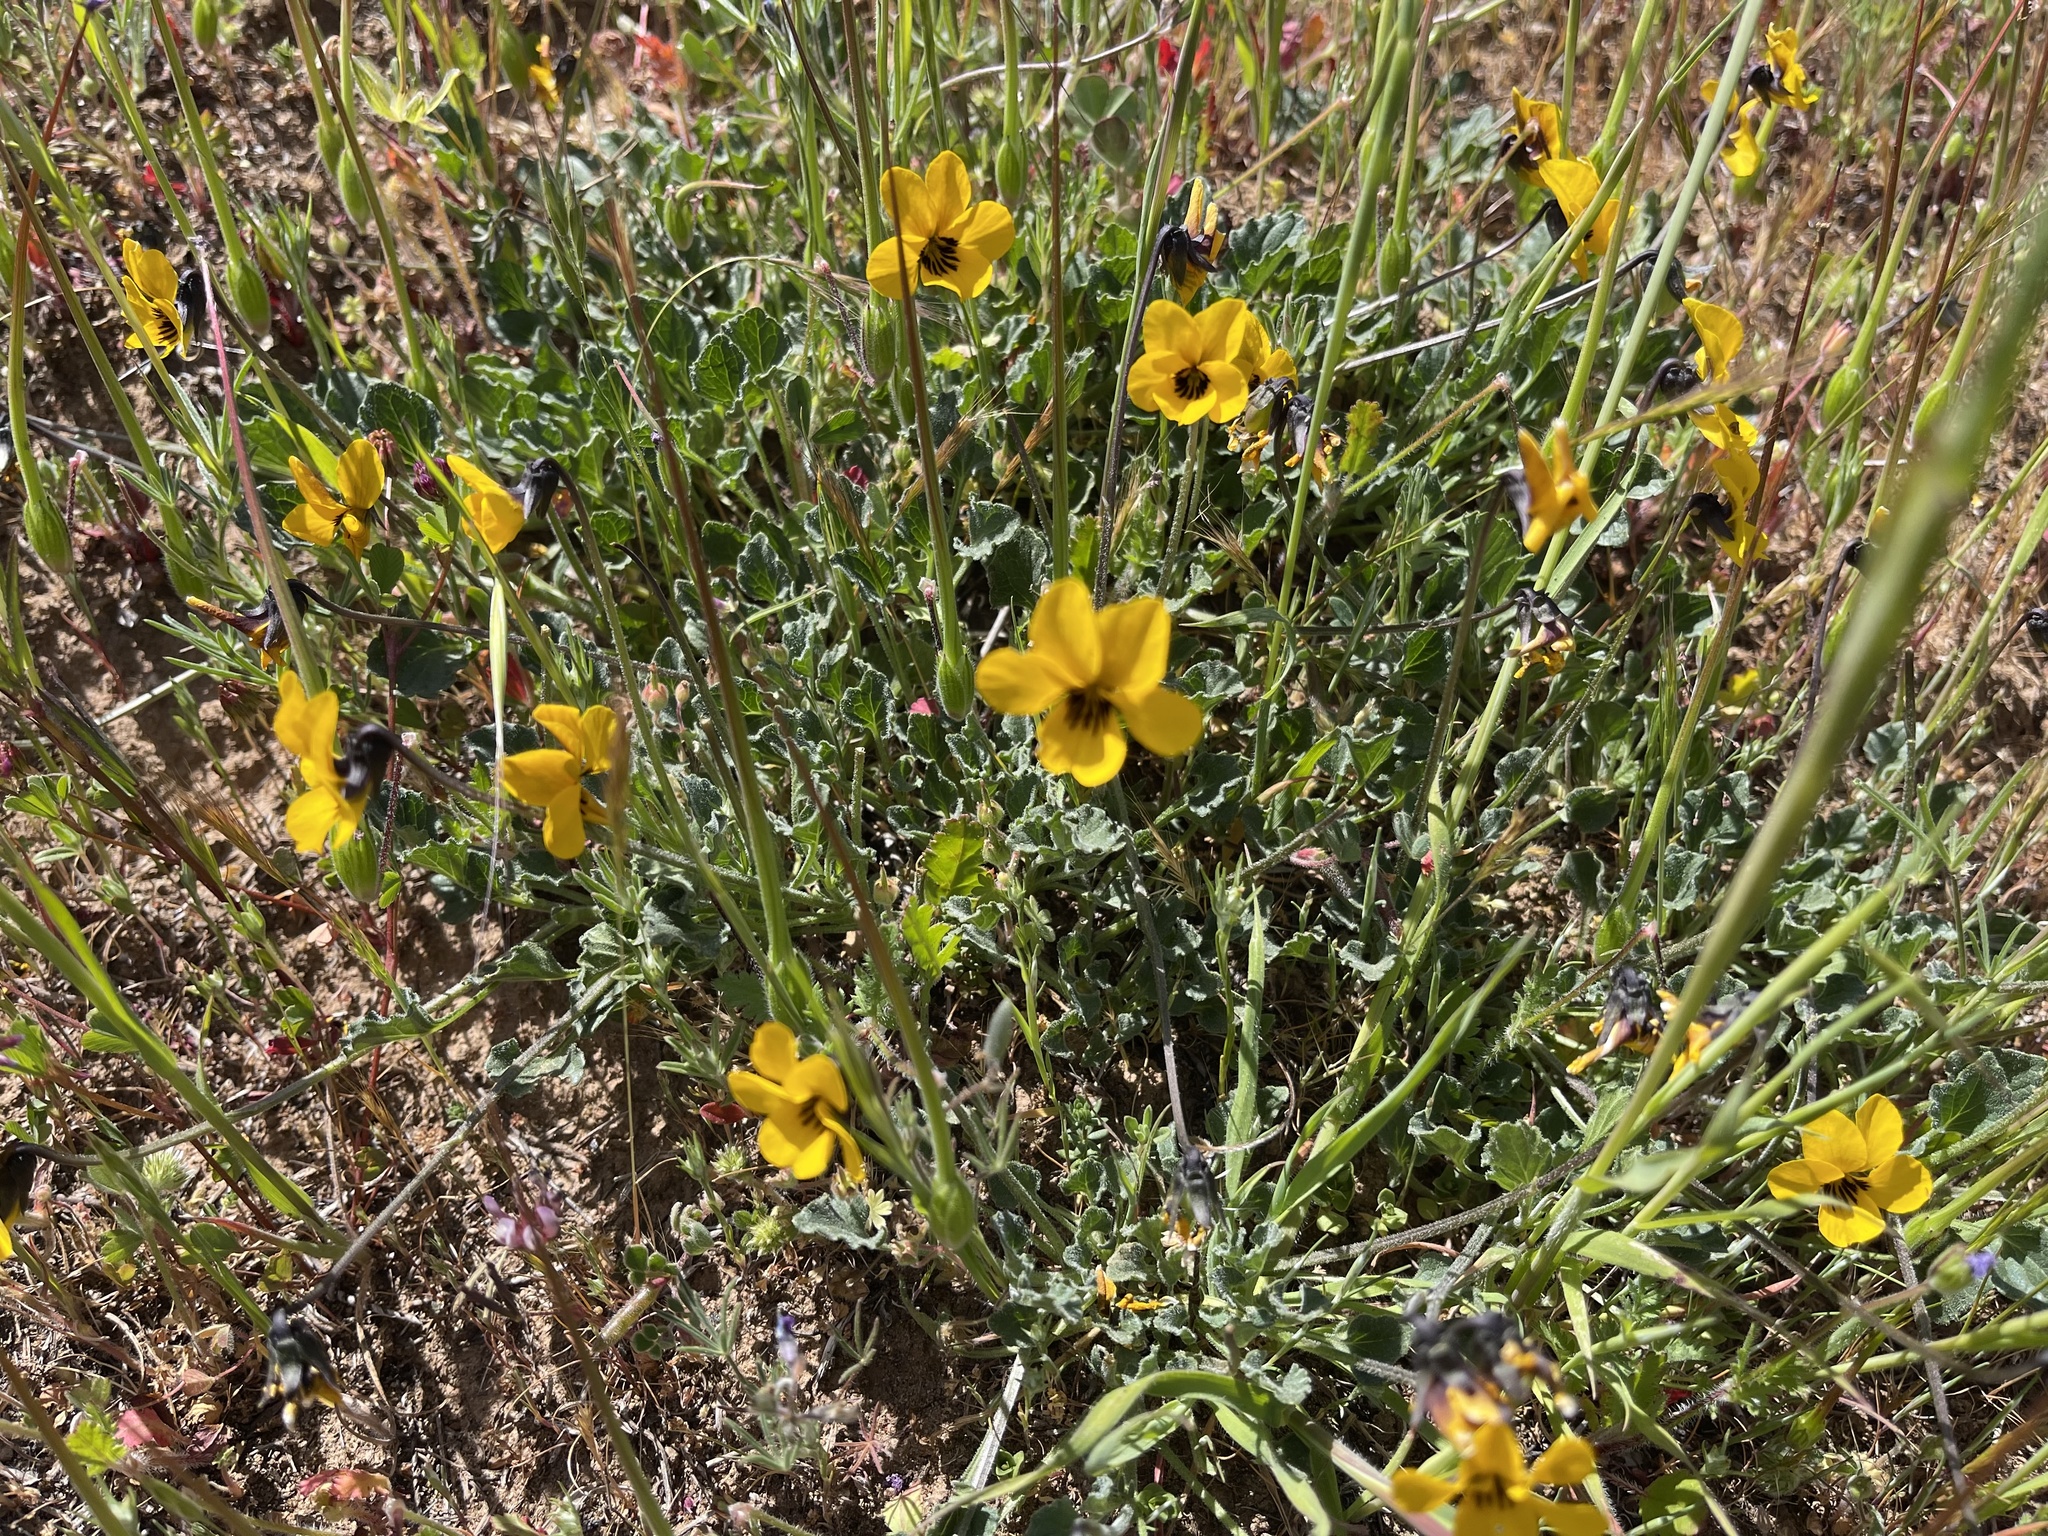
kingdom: Plantae
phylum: Tracheophyta
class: Magnoliopsida
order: Malpighiales
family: Violaceae
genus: Viola
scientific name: Viola pedunculata
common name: California golden violet
